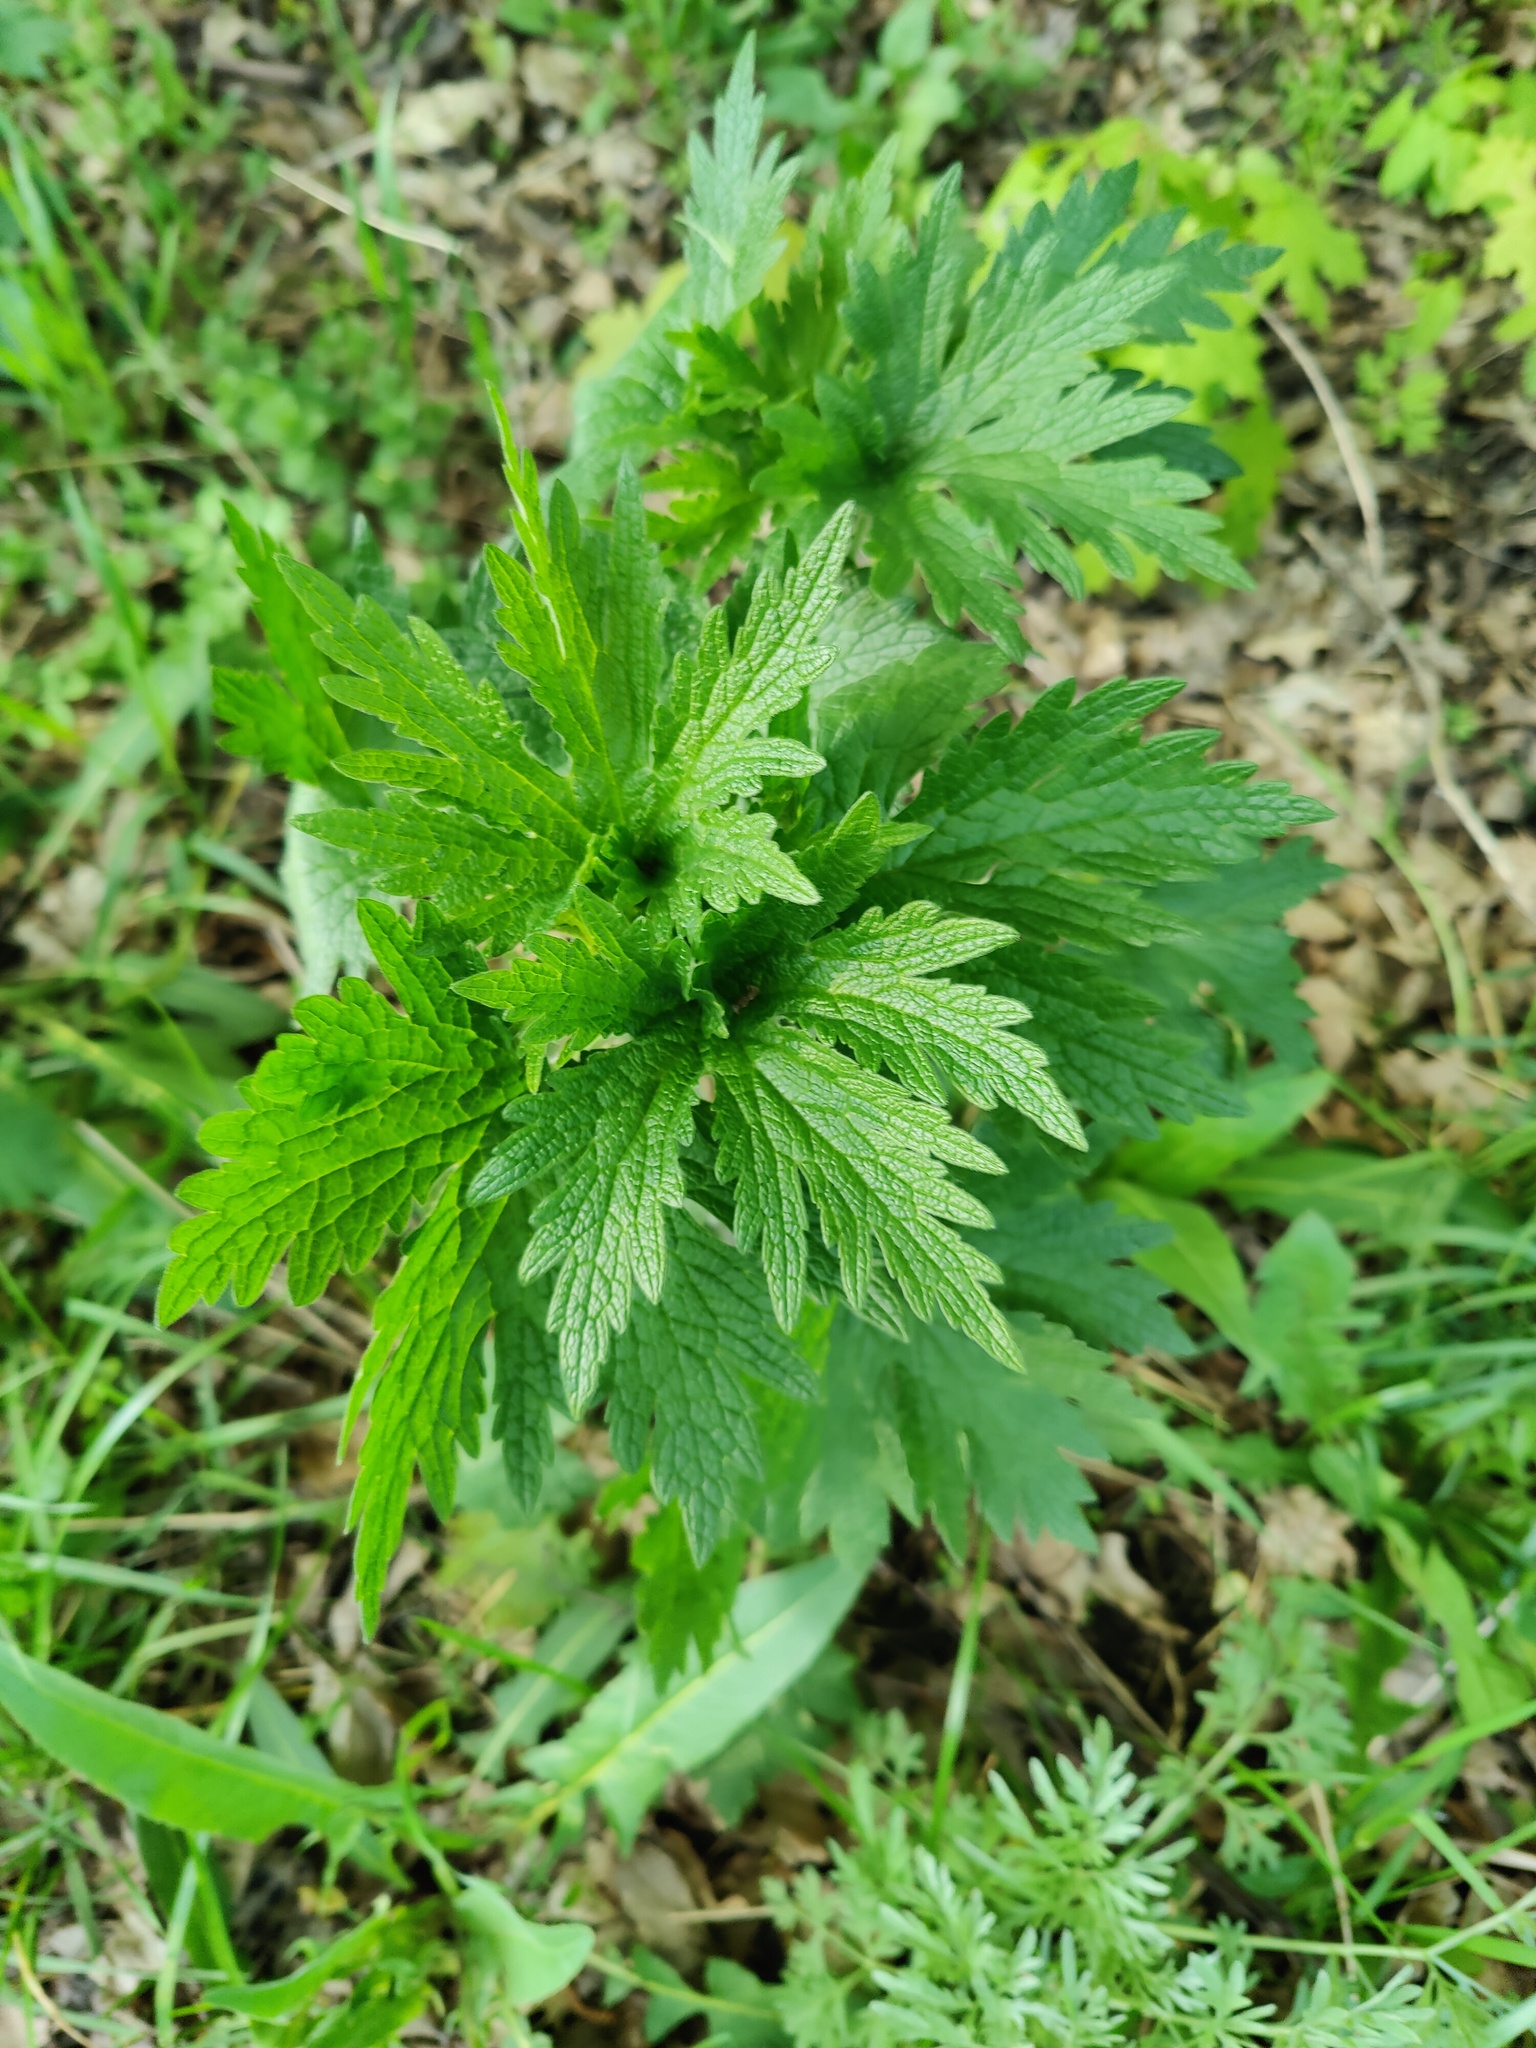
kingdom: Plantae
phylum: Tracheophyta
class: Magnoliopsida
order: Lamiales
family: Lamiaceae
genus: Leonurus
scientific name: Leonurus quinquelobatus
